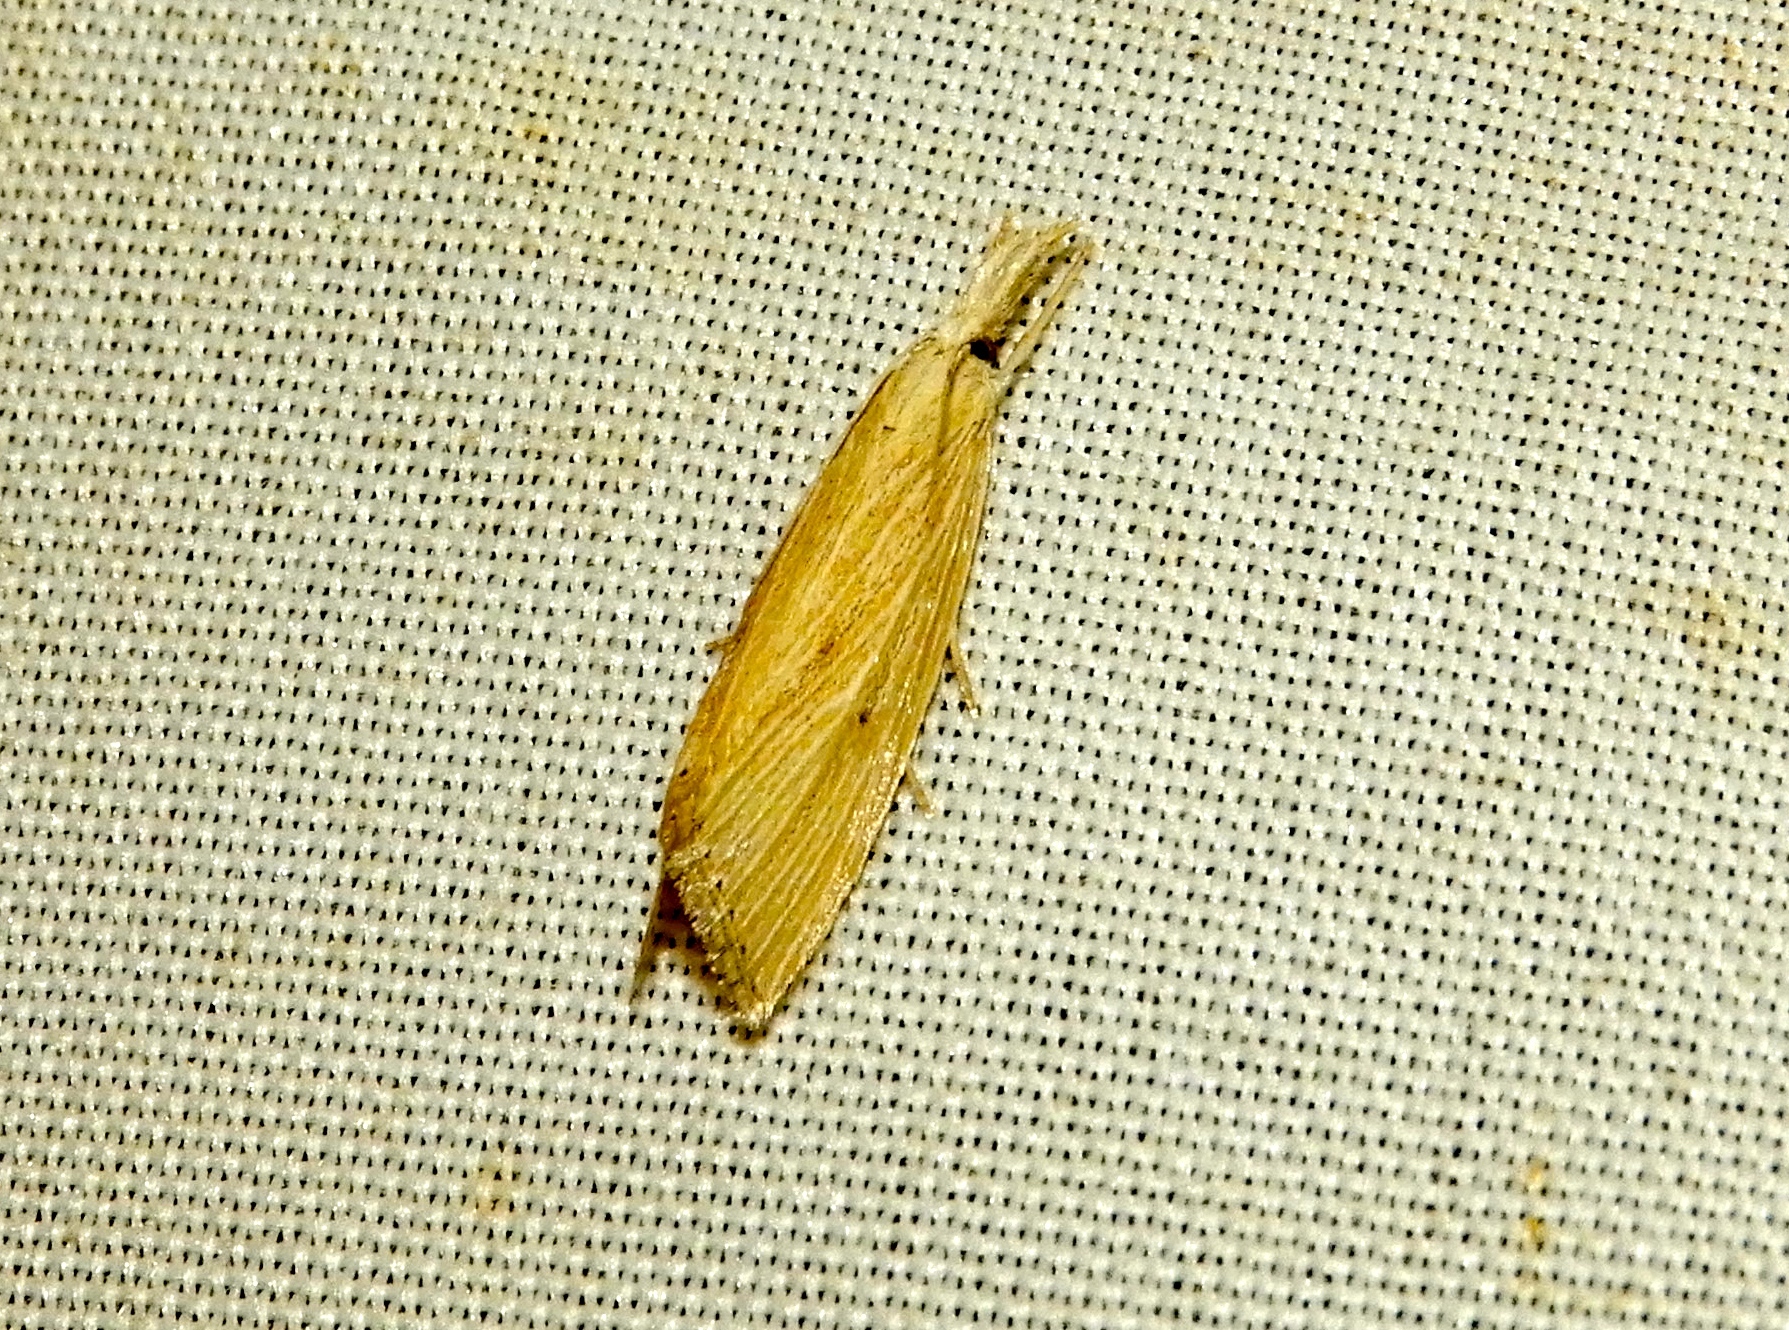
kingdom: Animalia
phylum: Arthropoda
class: Insecta
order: Lepidoptera
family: Crambidae
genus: Eoreuma
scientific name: Eoreuma densellus
